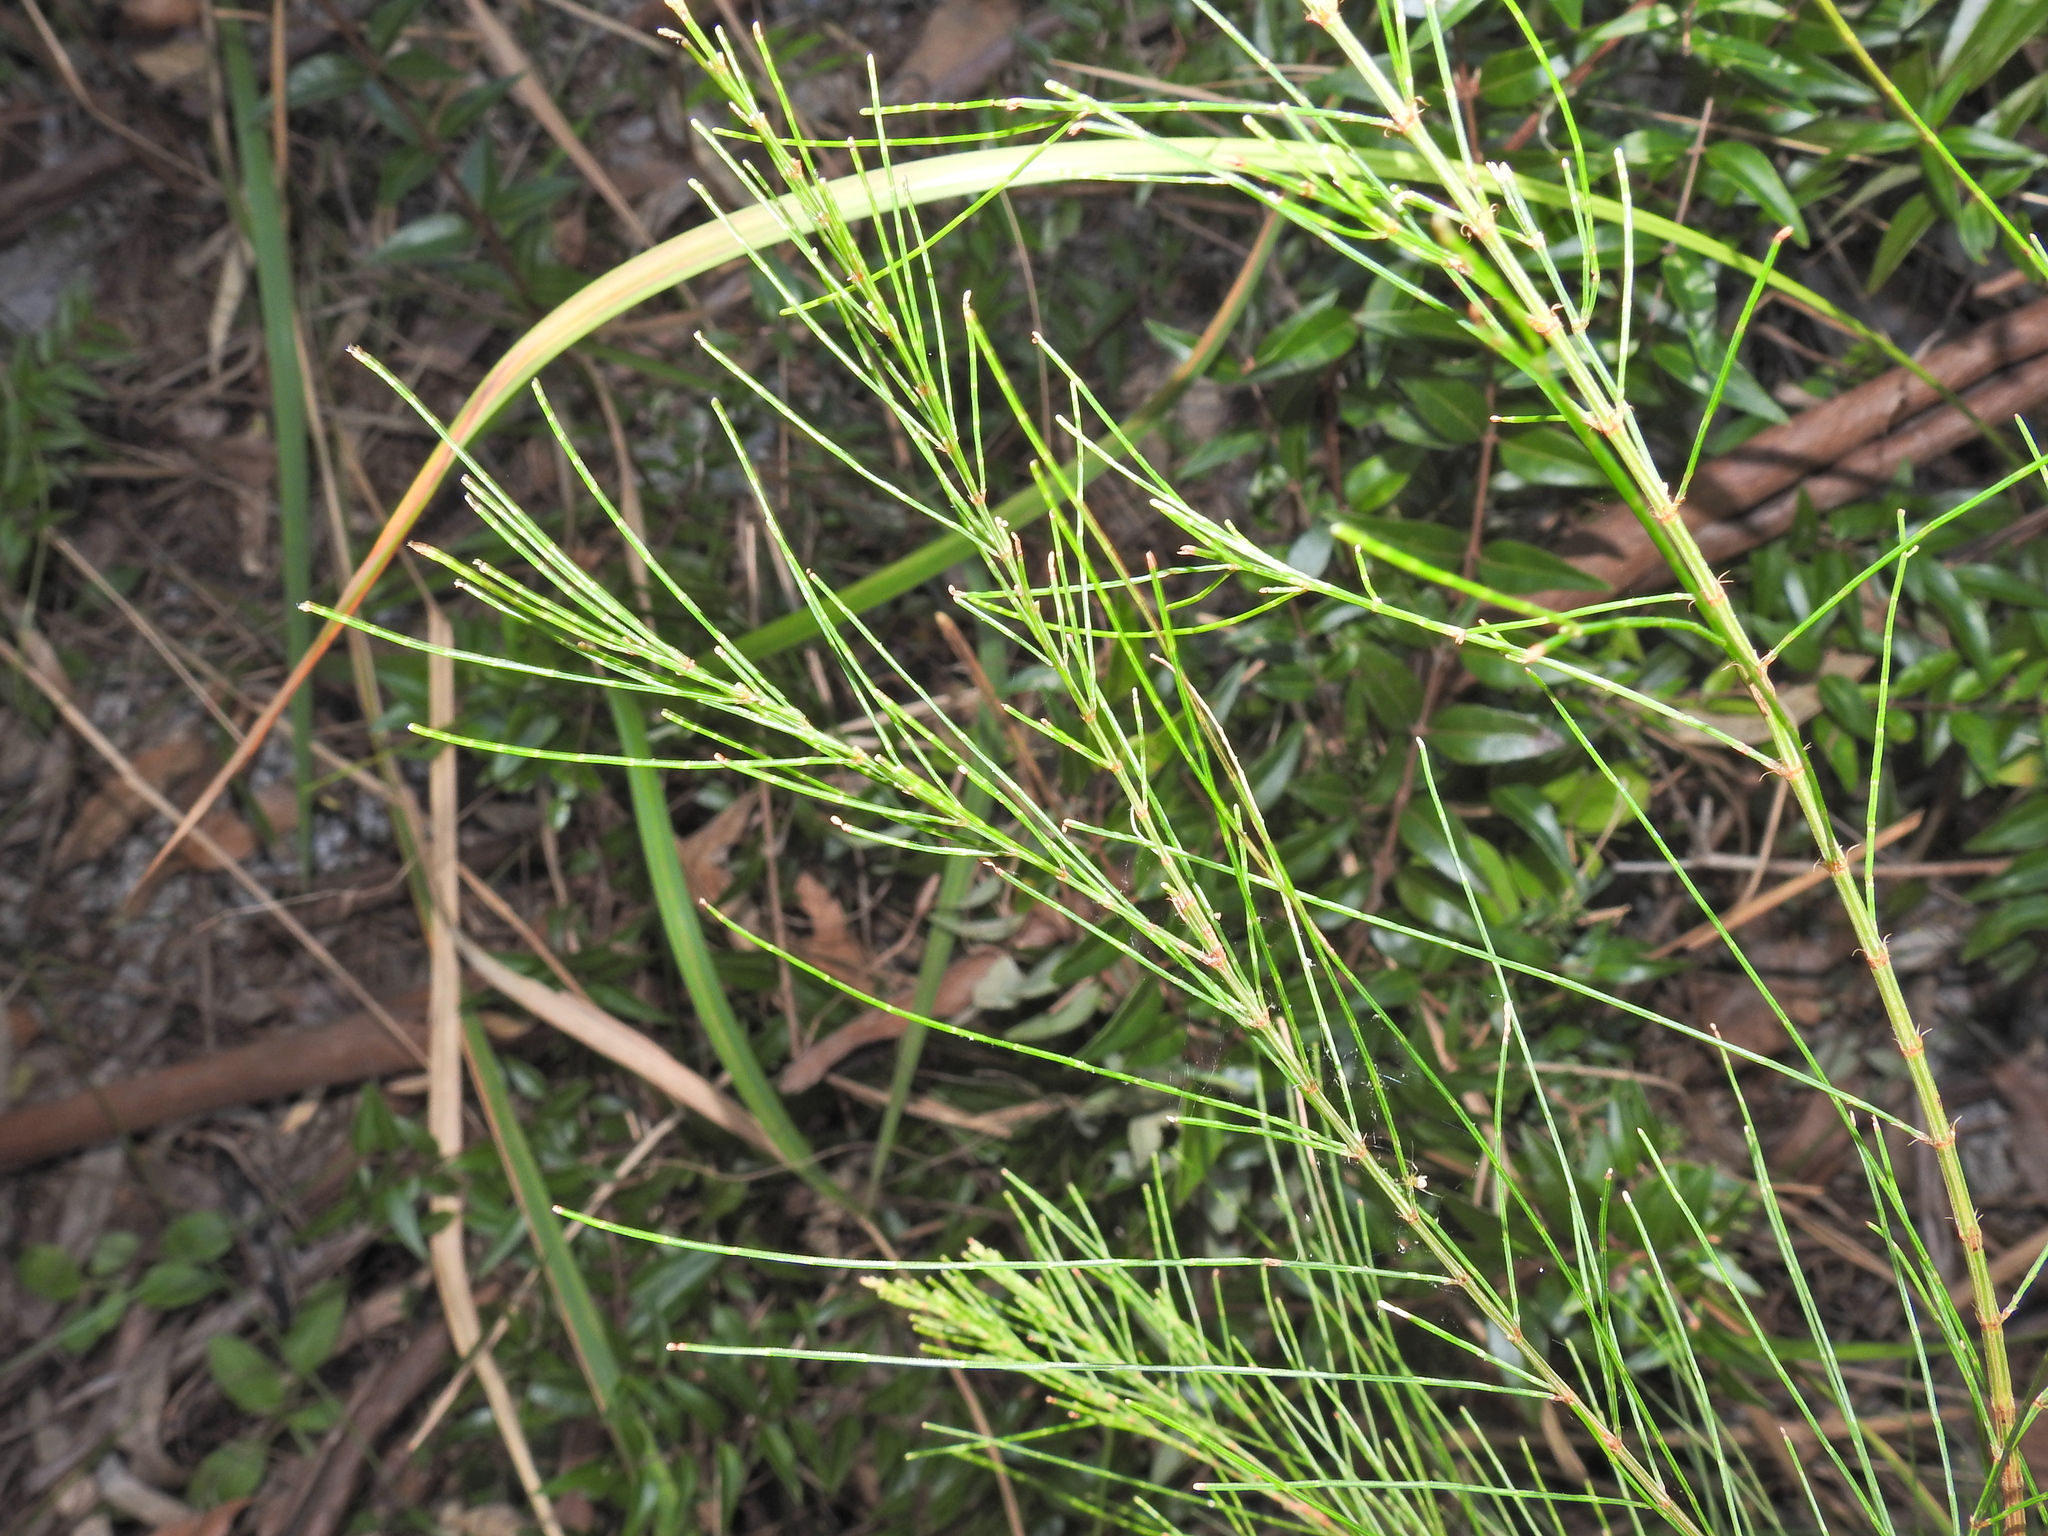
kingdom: Plantae
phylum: Tracheophyta
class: Magnoliopsida
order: Fagales
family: Casuarinaceae
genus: Allocasuarina
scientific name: Allocasuarina torulosa
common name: Forest-oak
